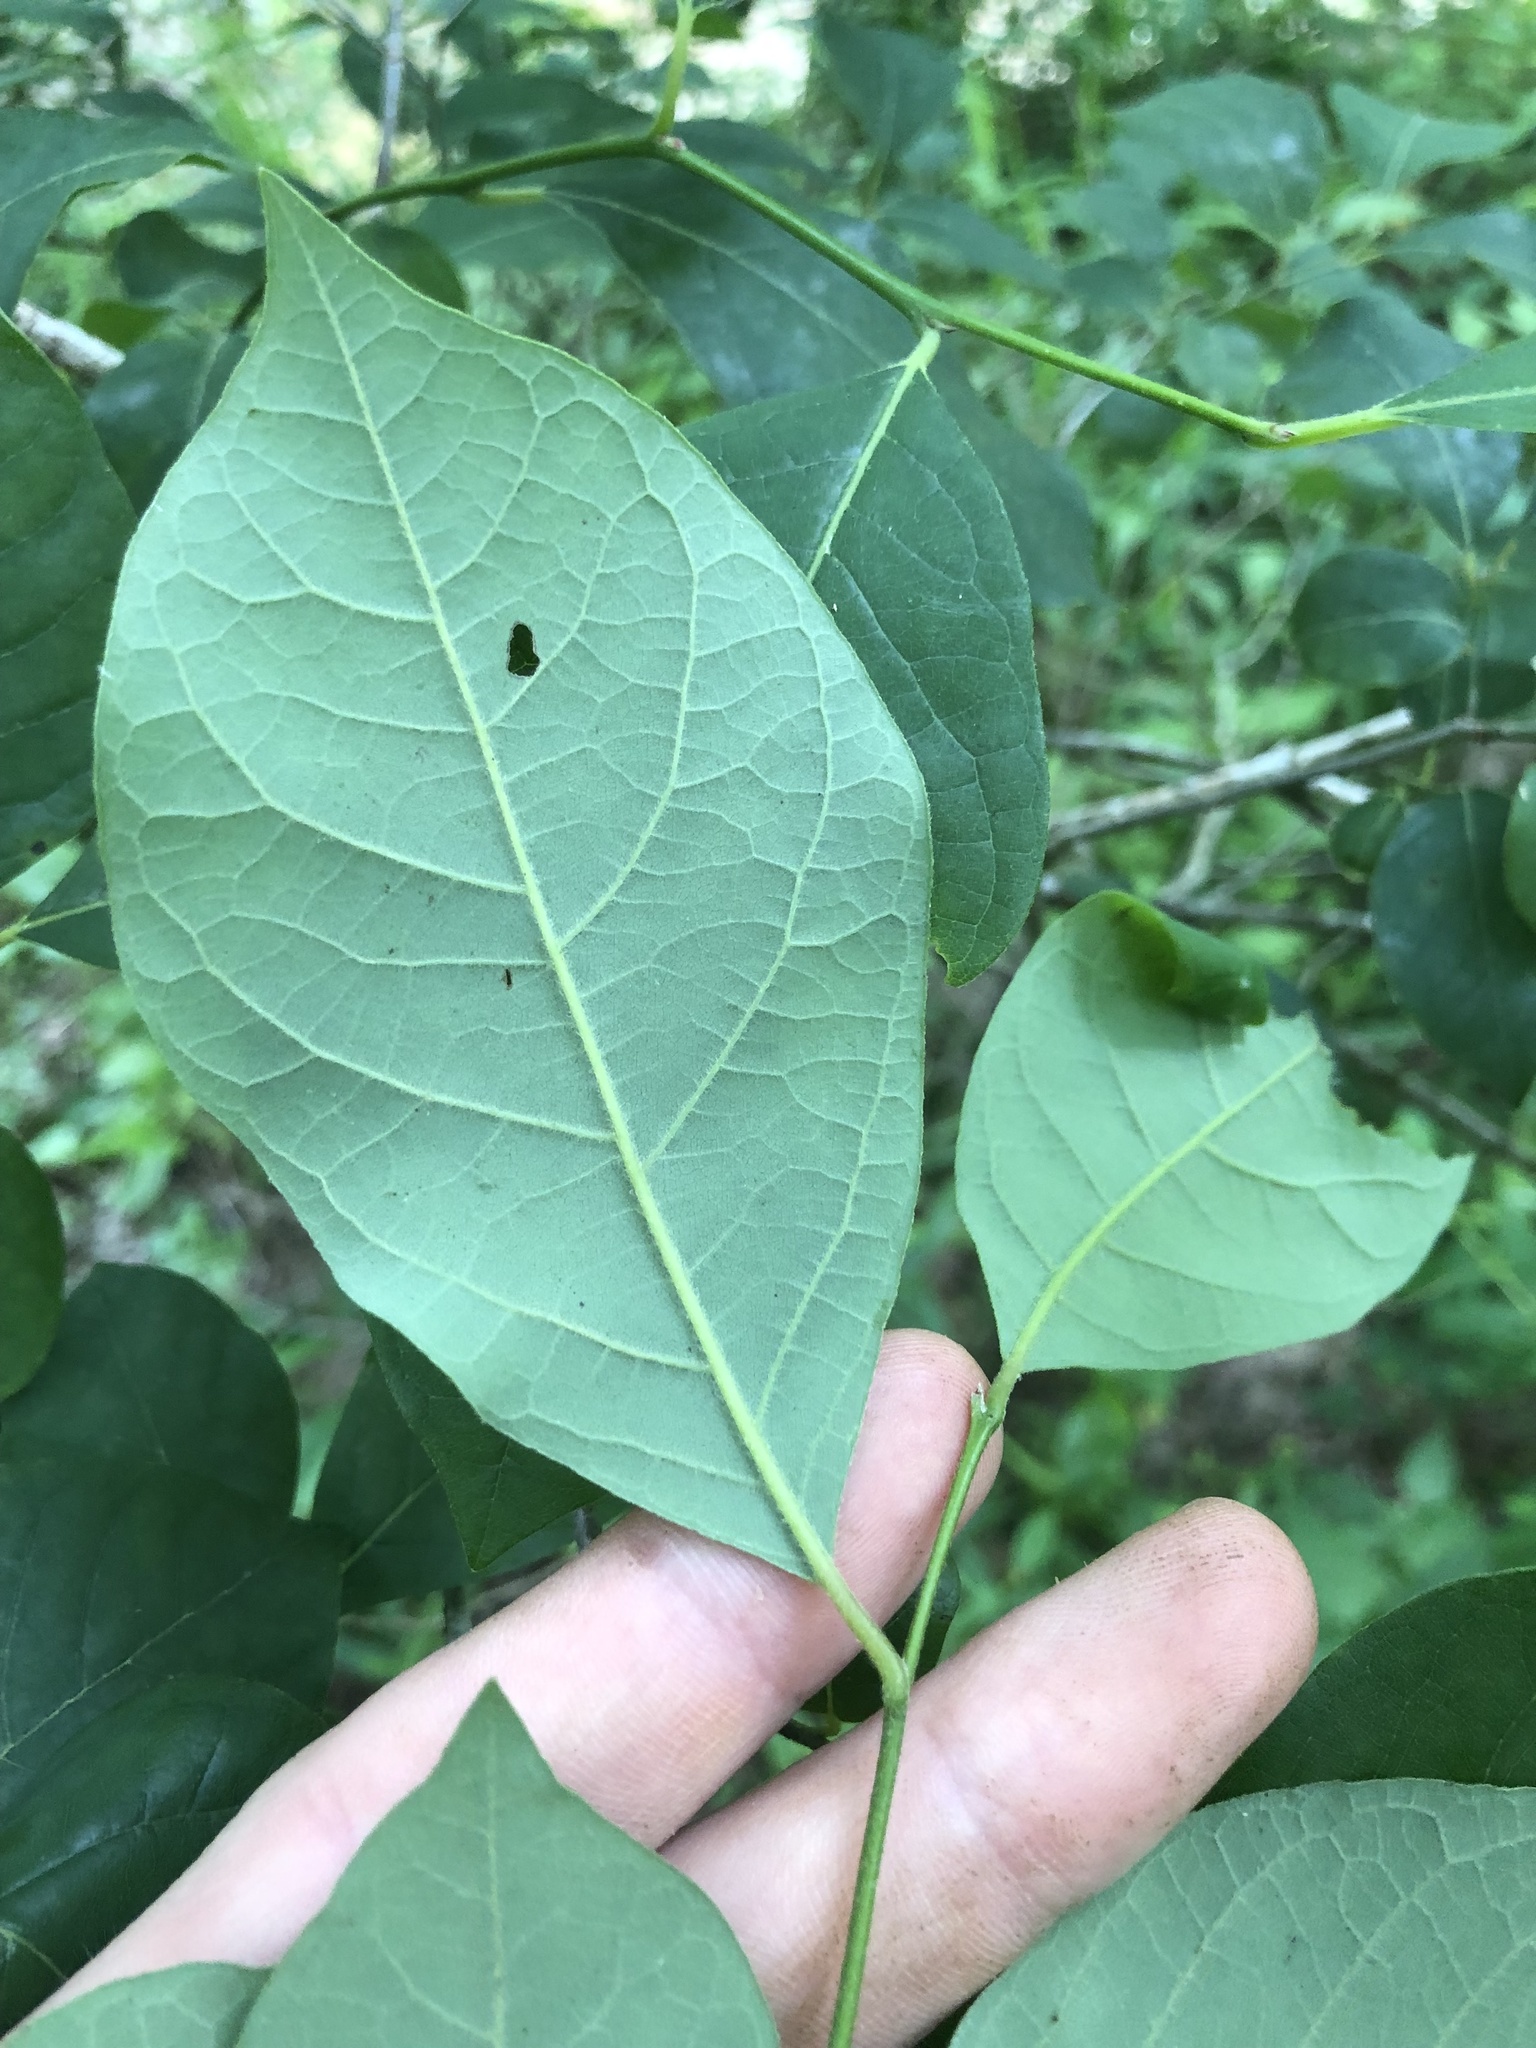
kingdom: Plantae
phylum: Tracheophyta
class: Magnoliopsida
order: Laurales
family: Lauraceae
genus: Lindera
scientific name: Lindera benzoin
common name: Spicebush
